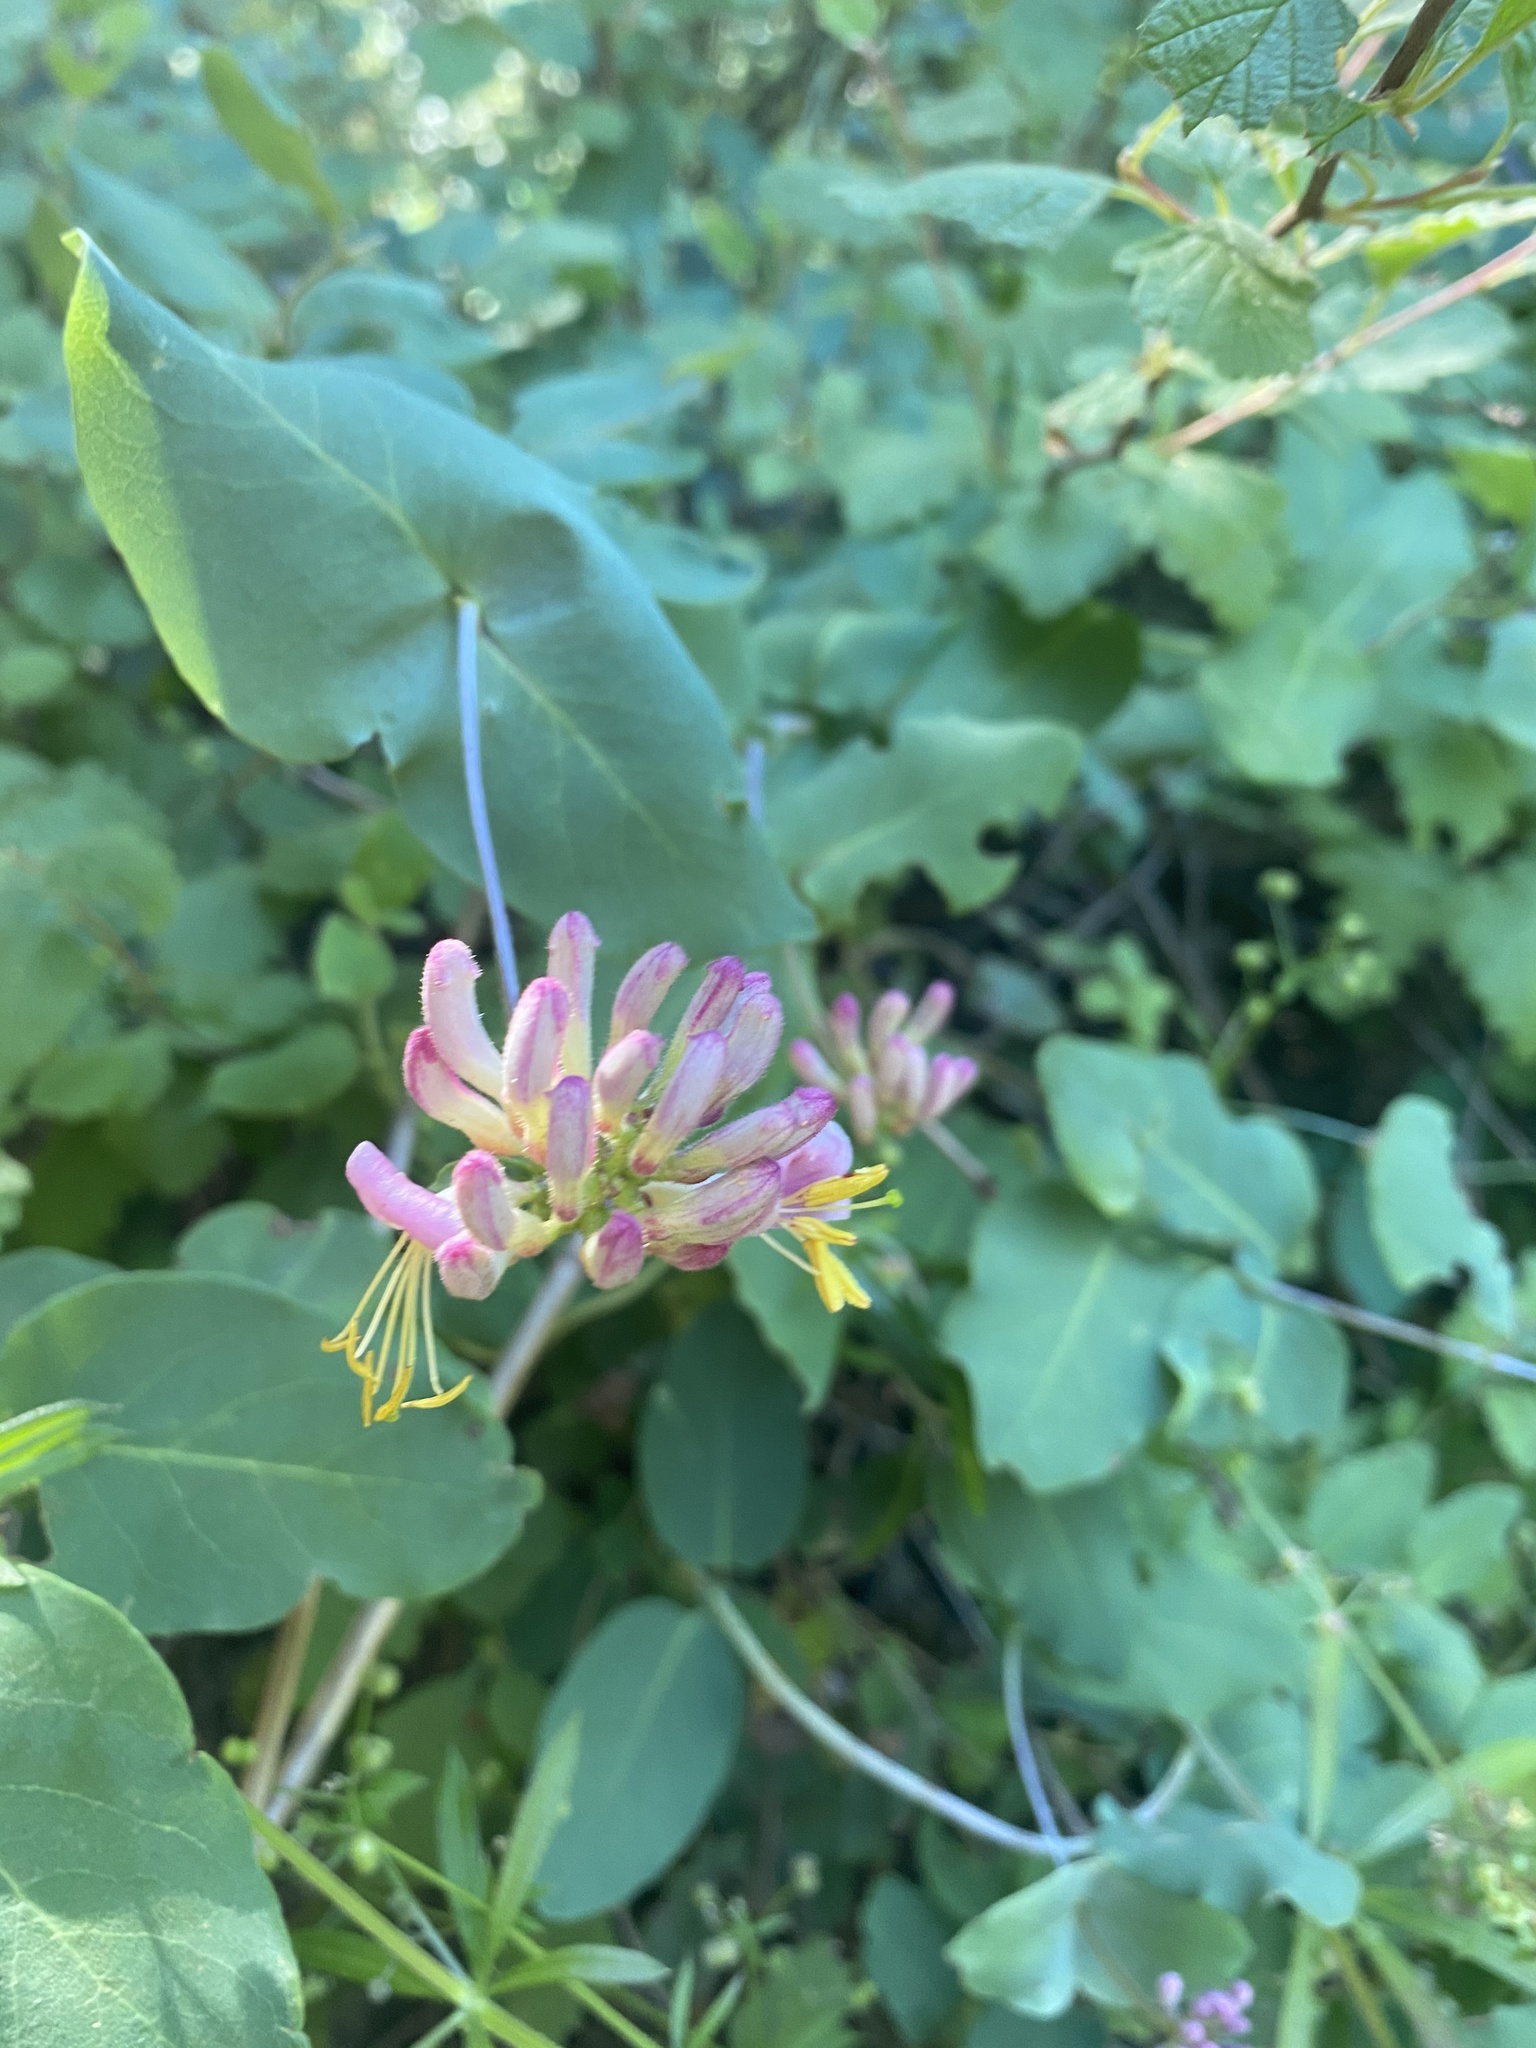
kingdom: Plantae
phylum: Tracheophyta
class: Magnoliopsida
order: Dipsacales
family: Caprifoliaceae
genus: Lonicera
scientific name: Lonicera hispidula
